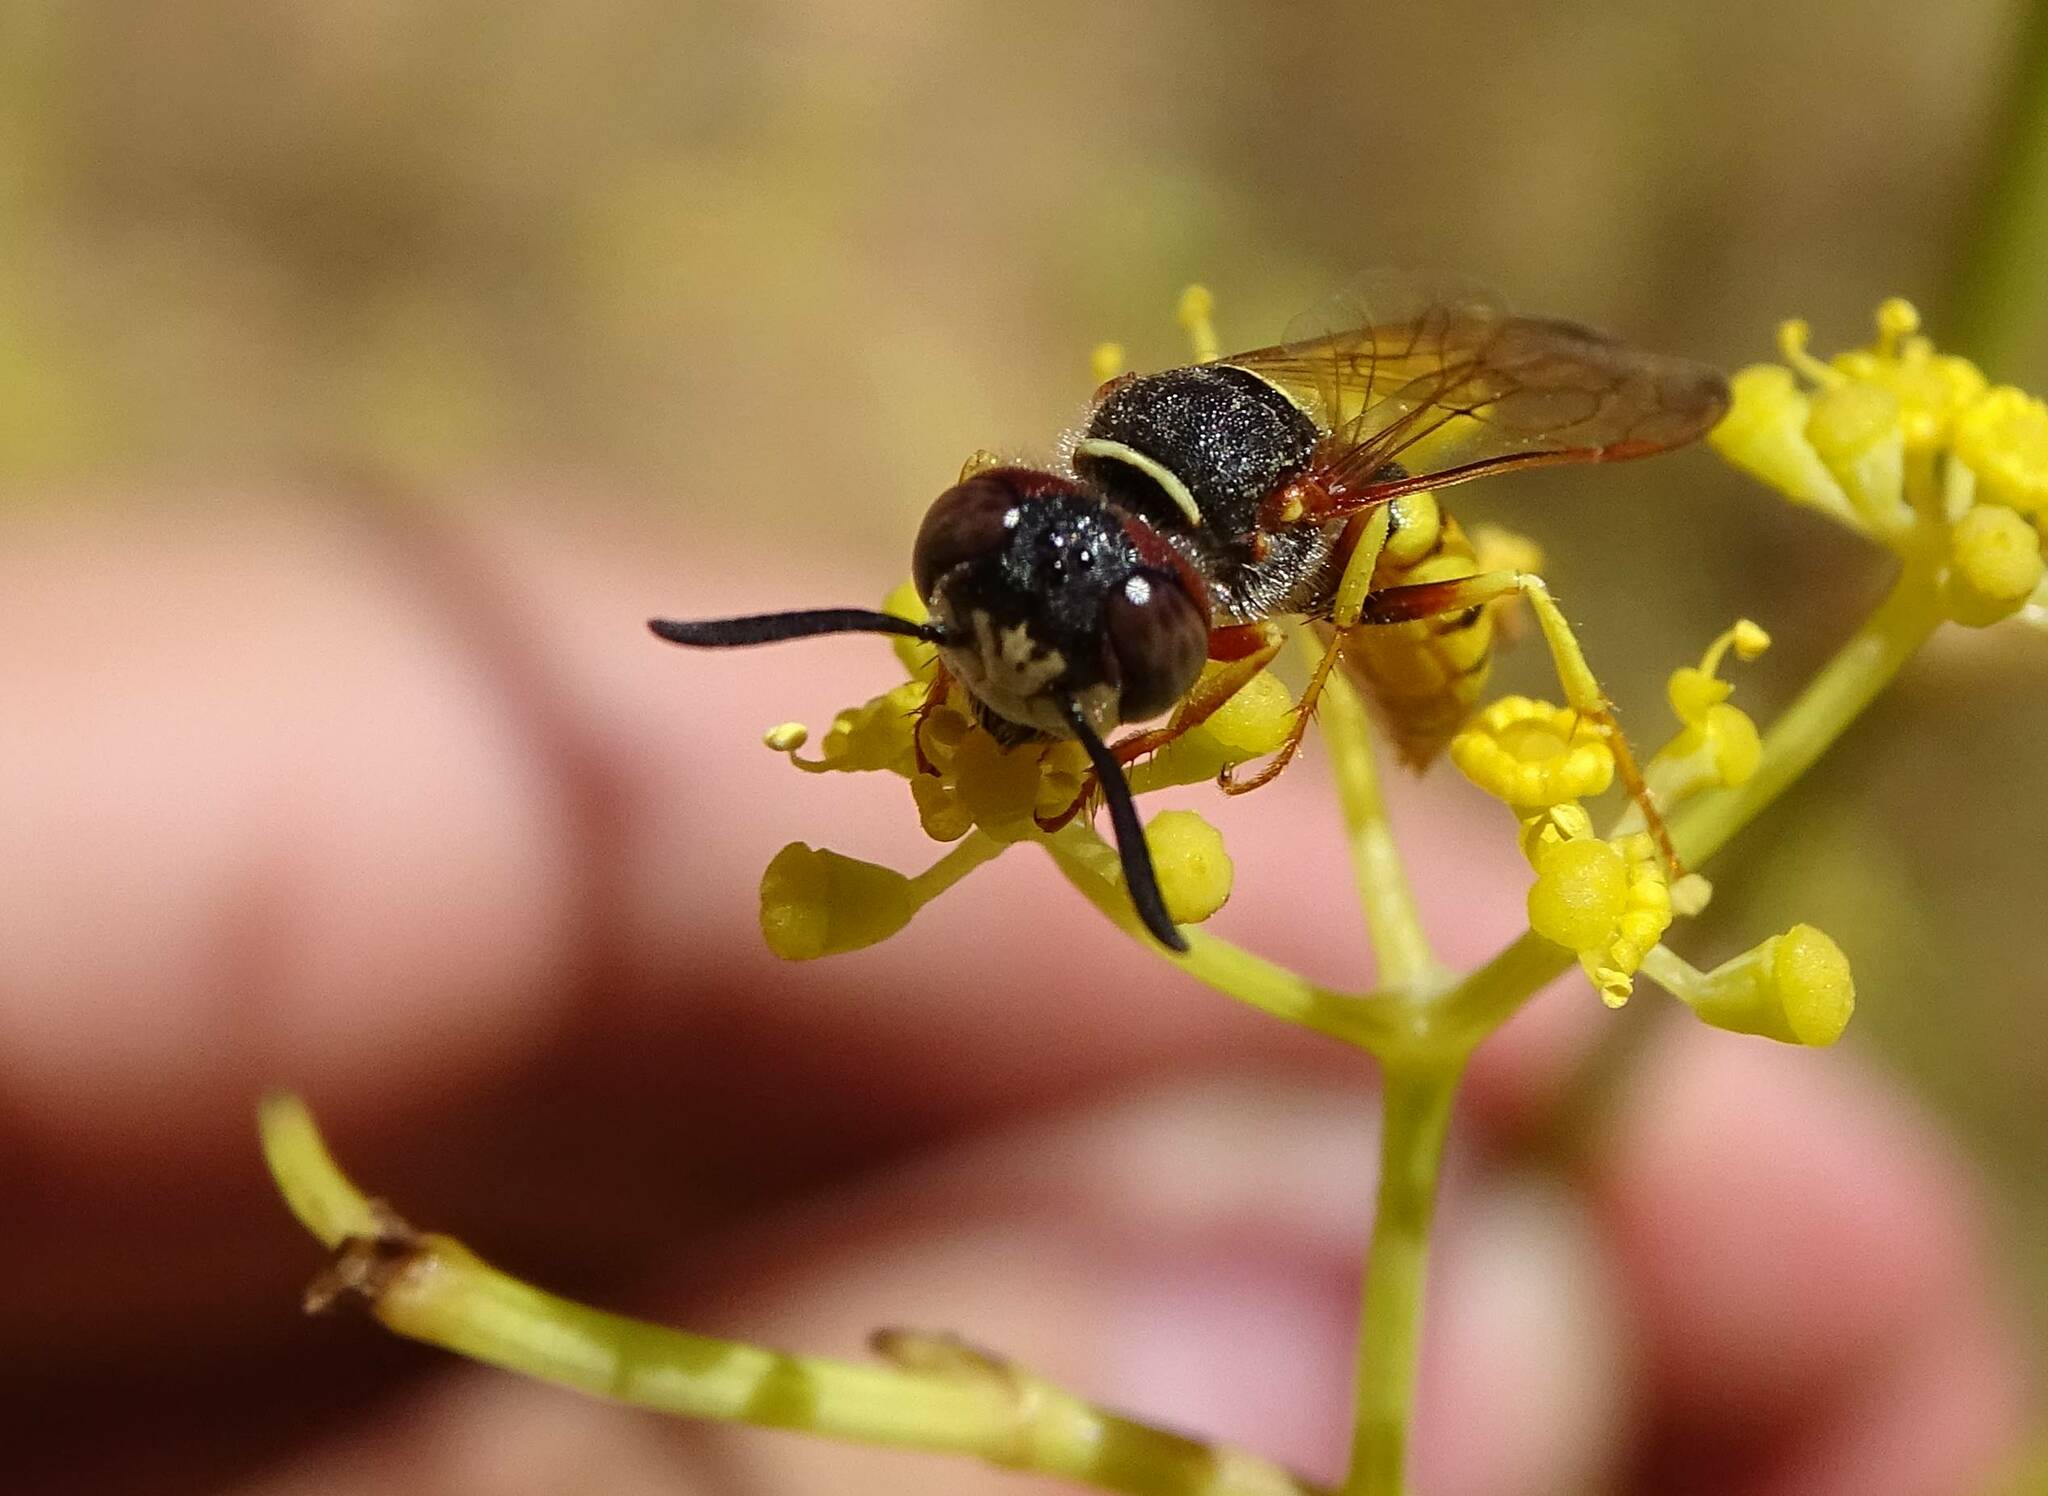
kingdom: Animalia
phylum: Arthropoda
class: Insecta
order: Hymenoptera
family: Crabronidae
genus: Philanthus
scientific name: Philanthus triangulum
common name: Bee wolf
